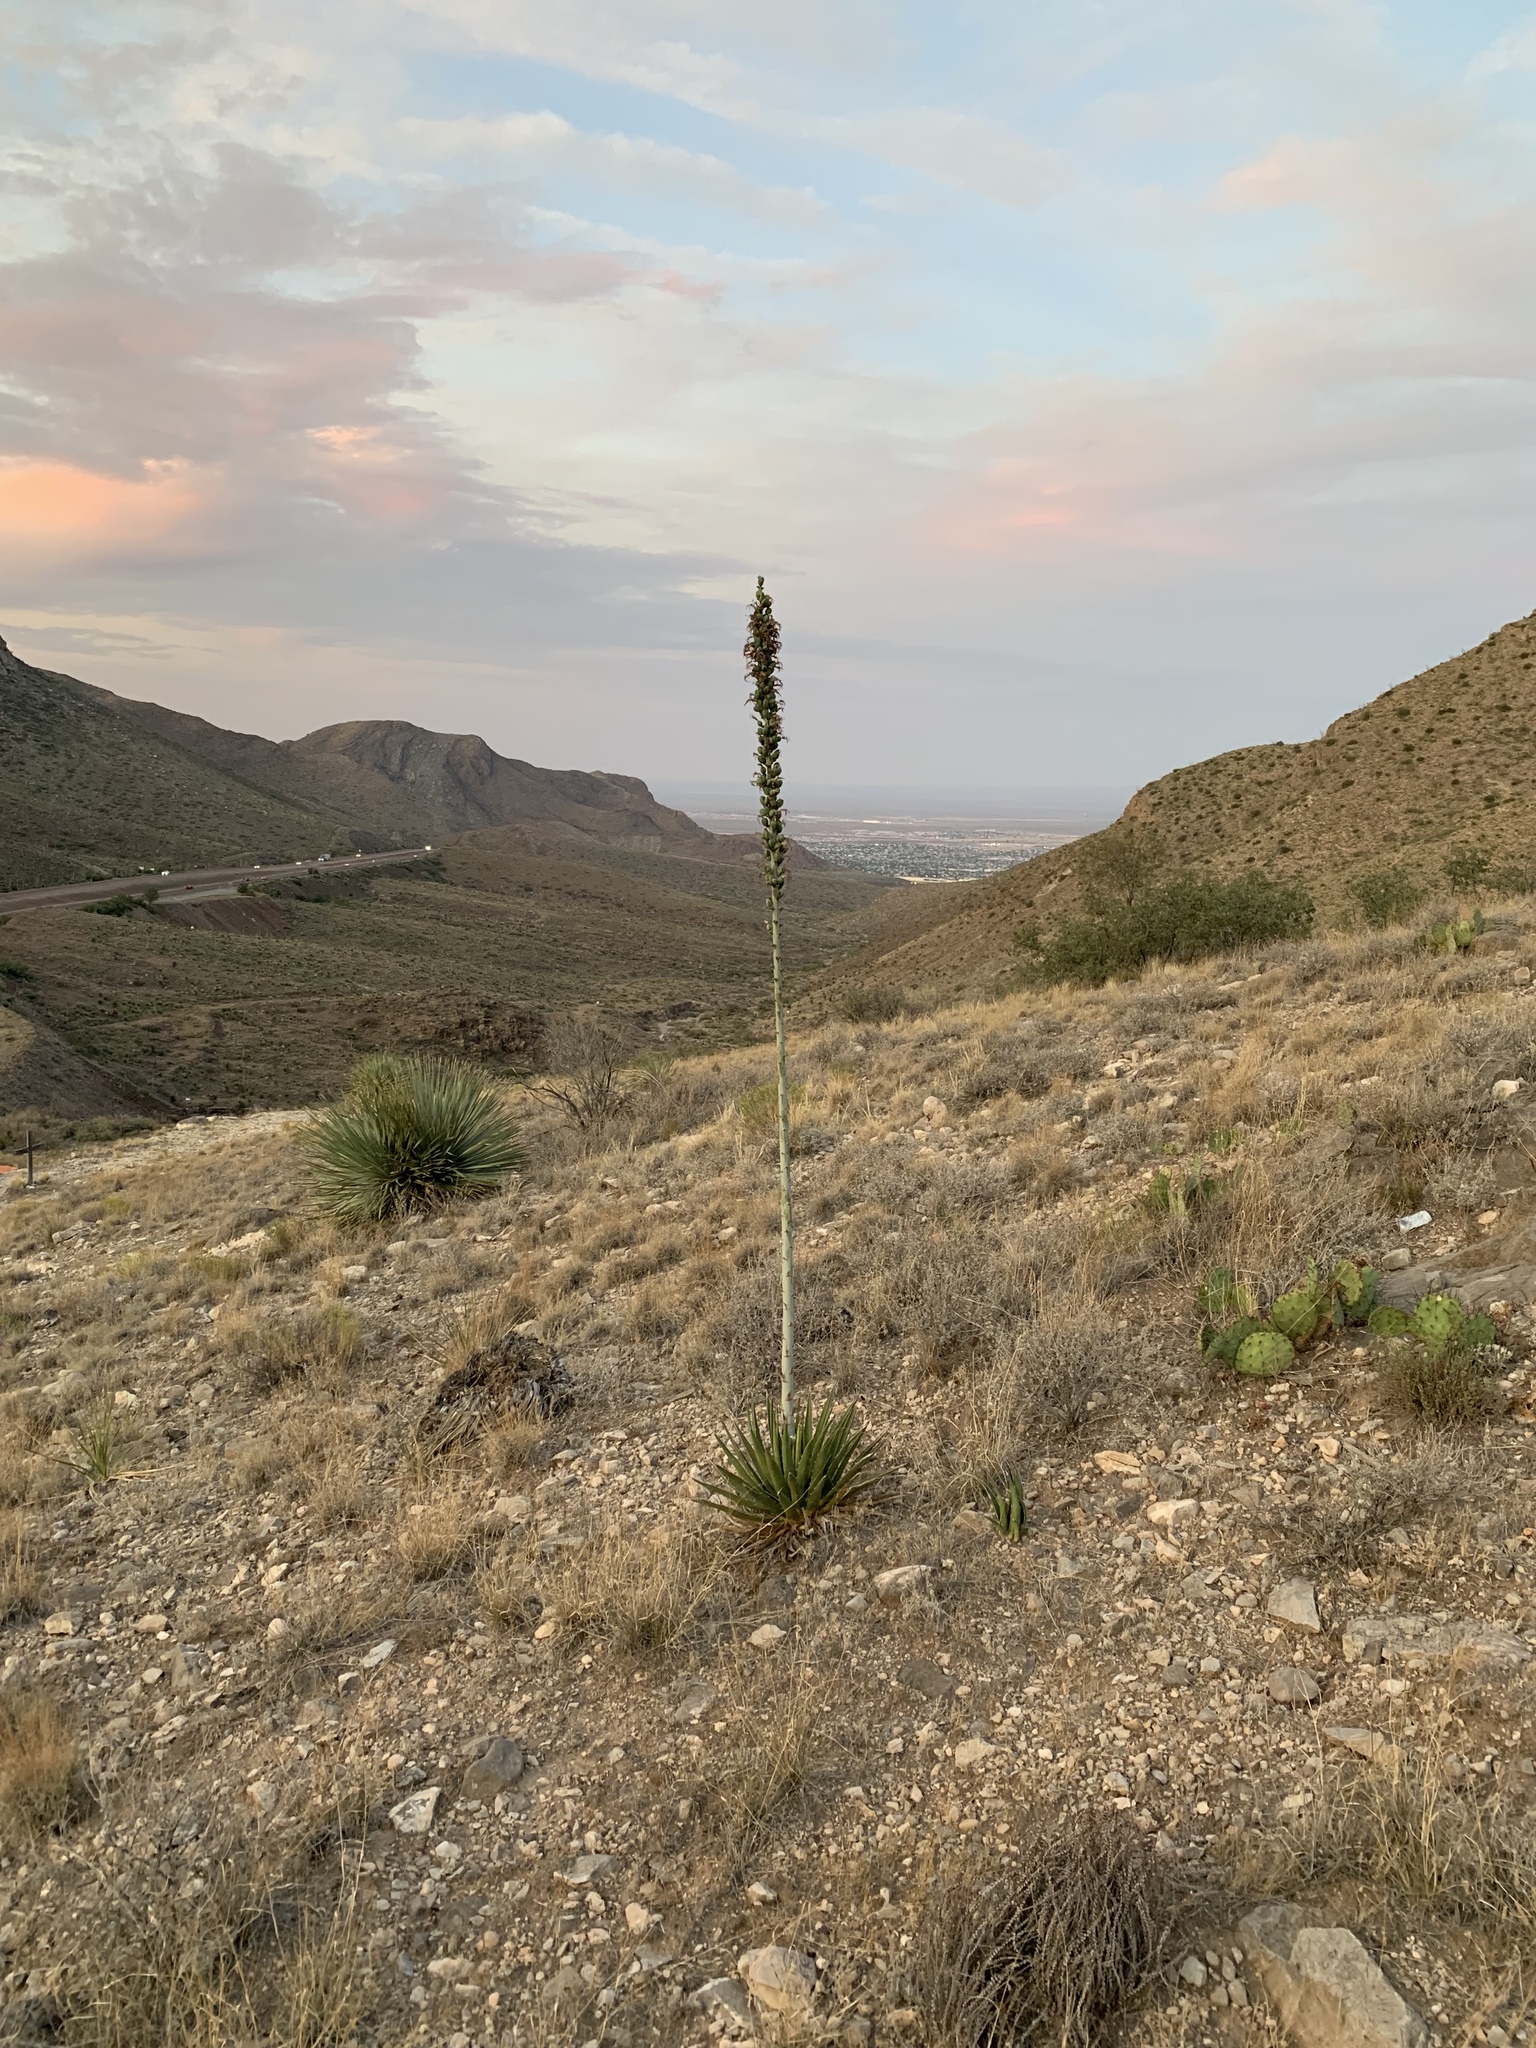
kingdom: Plantae
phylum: Tracheophyta
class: Liliopsida
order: Asparagales
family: Asparagaceae
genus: Agave
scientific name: Agave lechuguilla
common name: Lecheguilla agave
